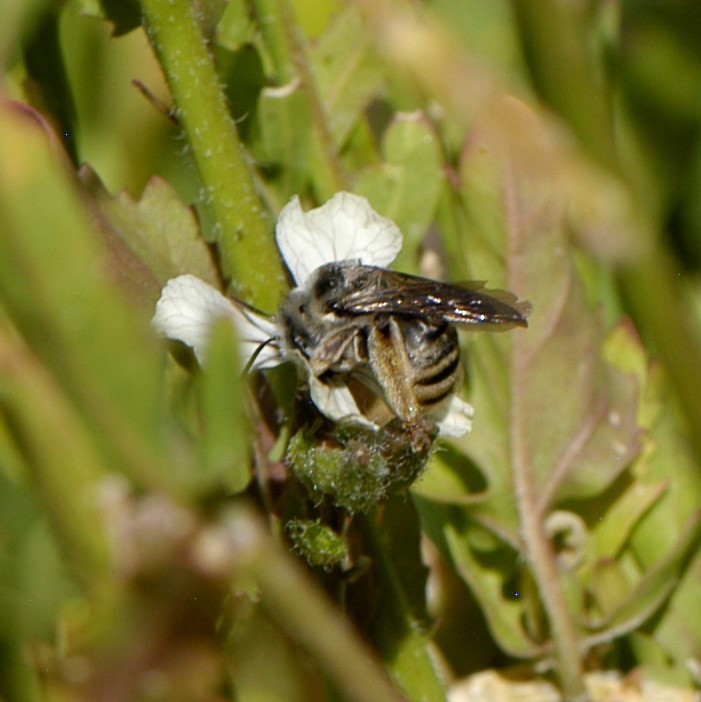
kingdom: Animalia
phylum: Arthropoda
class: Insecta
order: Hymenoptera
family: Apidae
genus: Melissodes
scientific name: Melissodes
